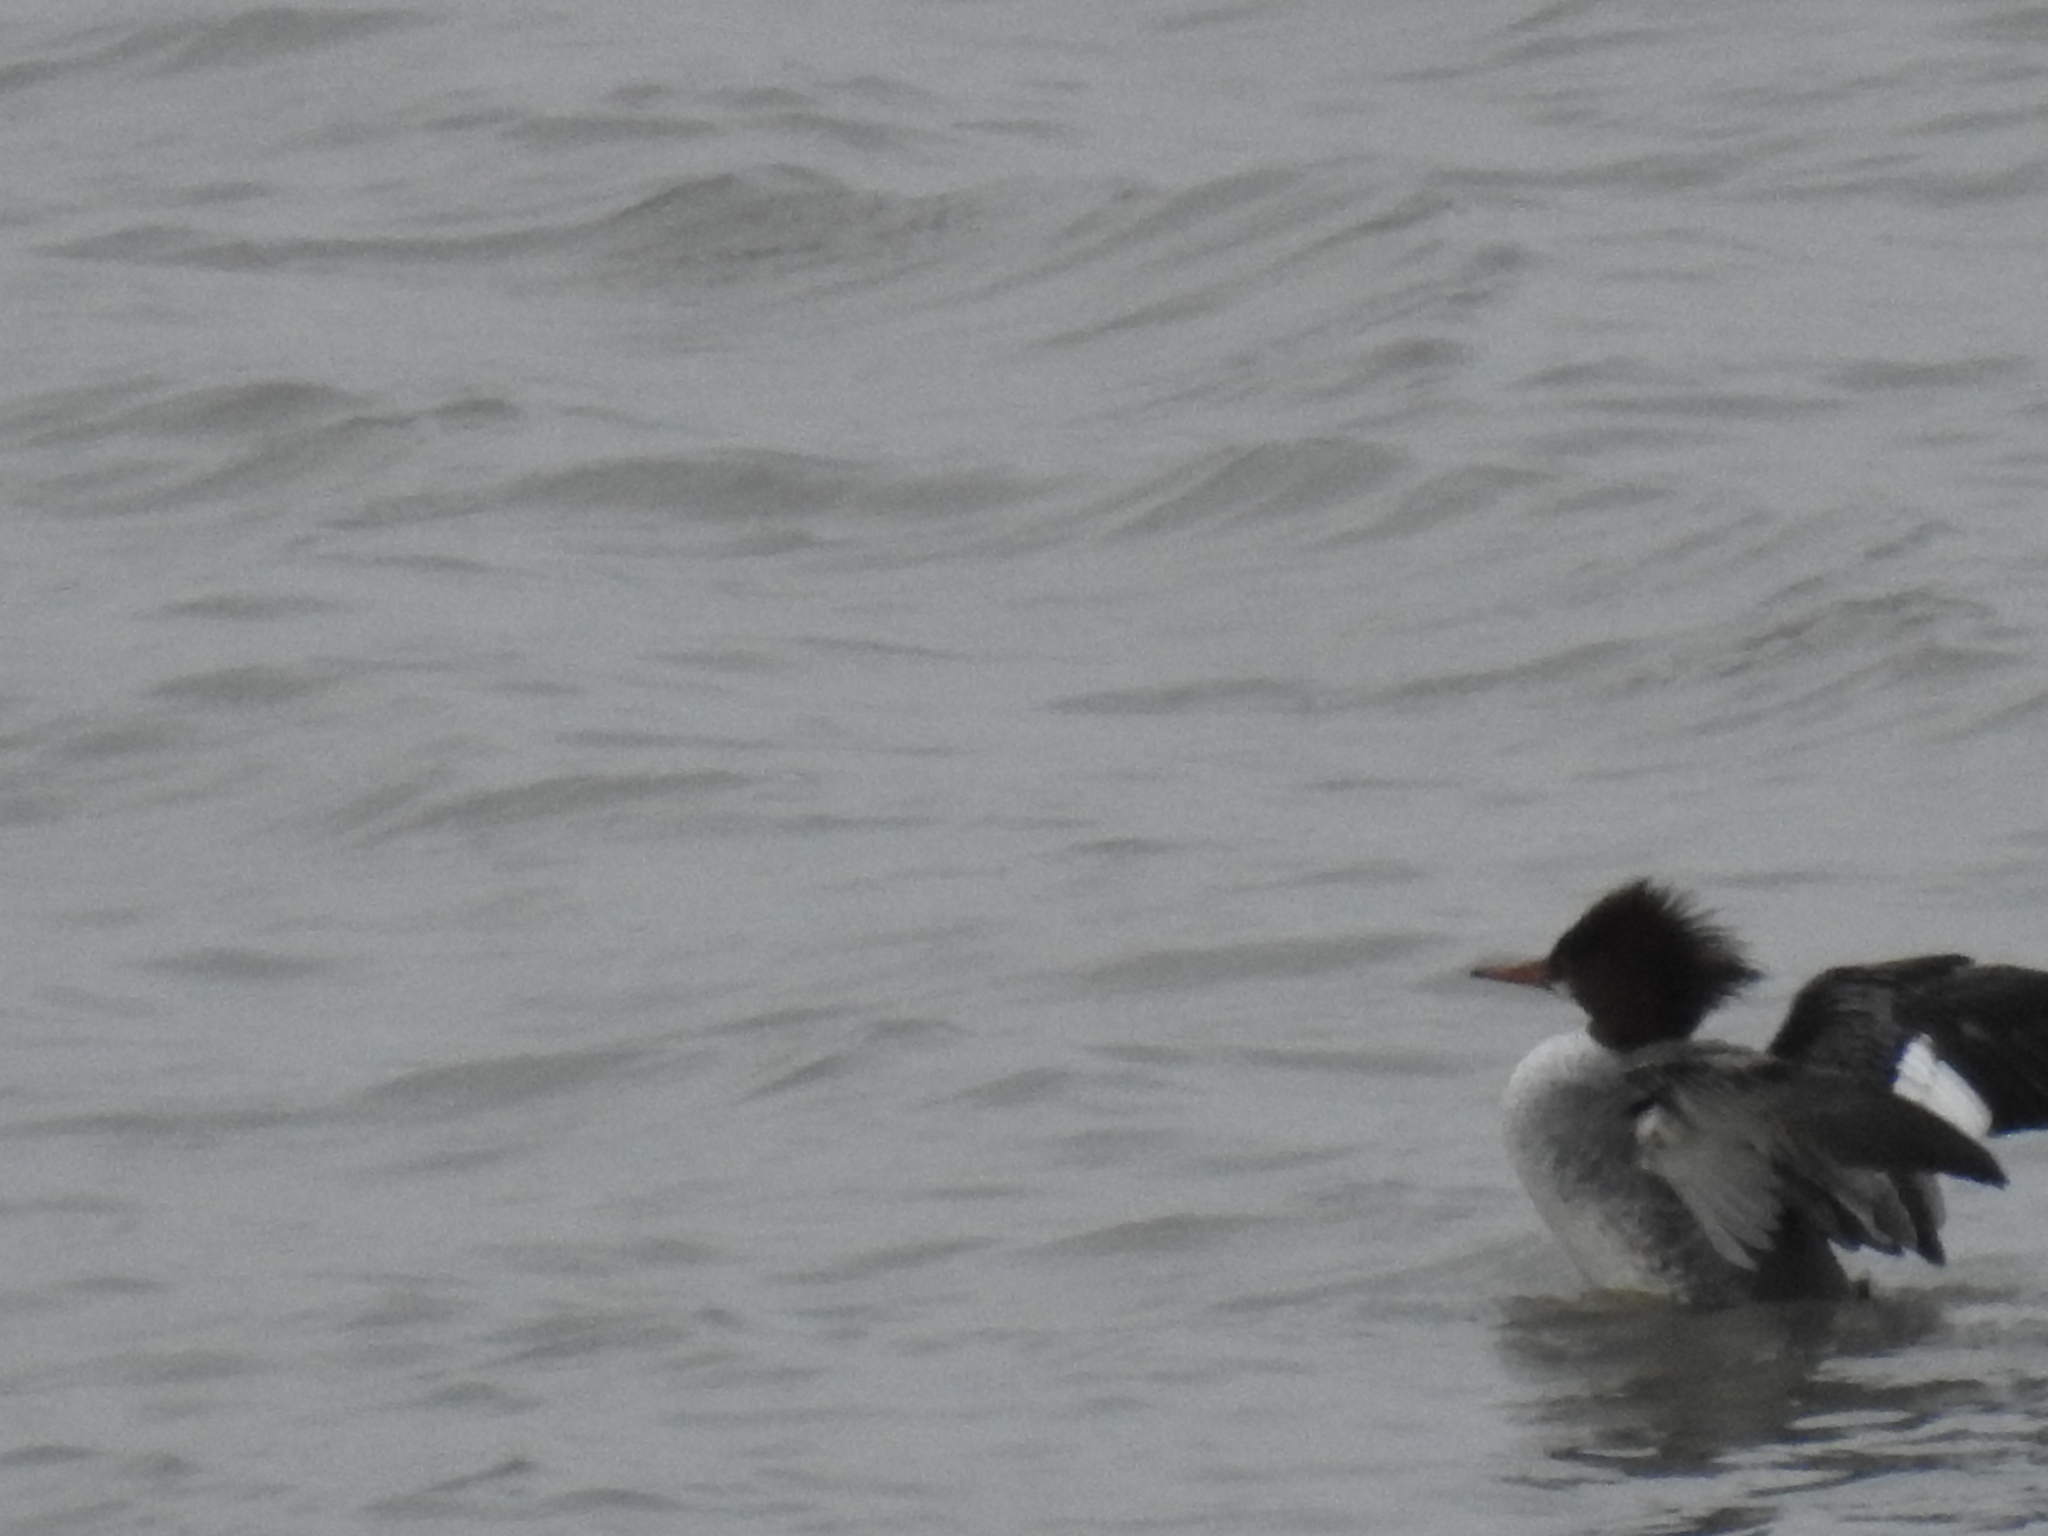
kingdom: Animalia
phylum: Chordata
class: Aves
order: Anseriformes
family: Anatidae
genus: Mergus
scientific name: Mergus merganser
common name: Common merganser
